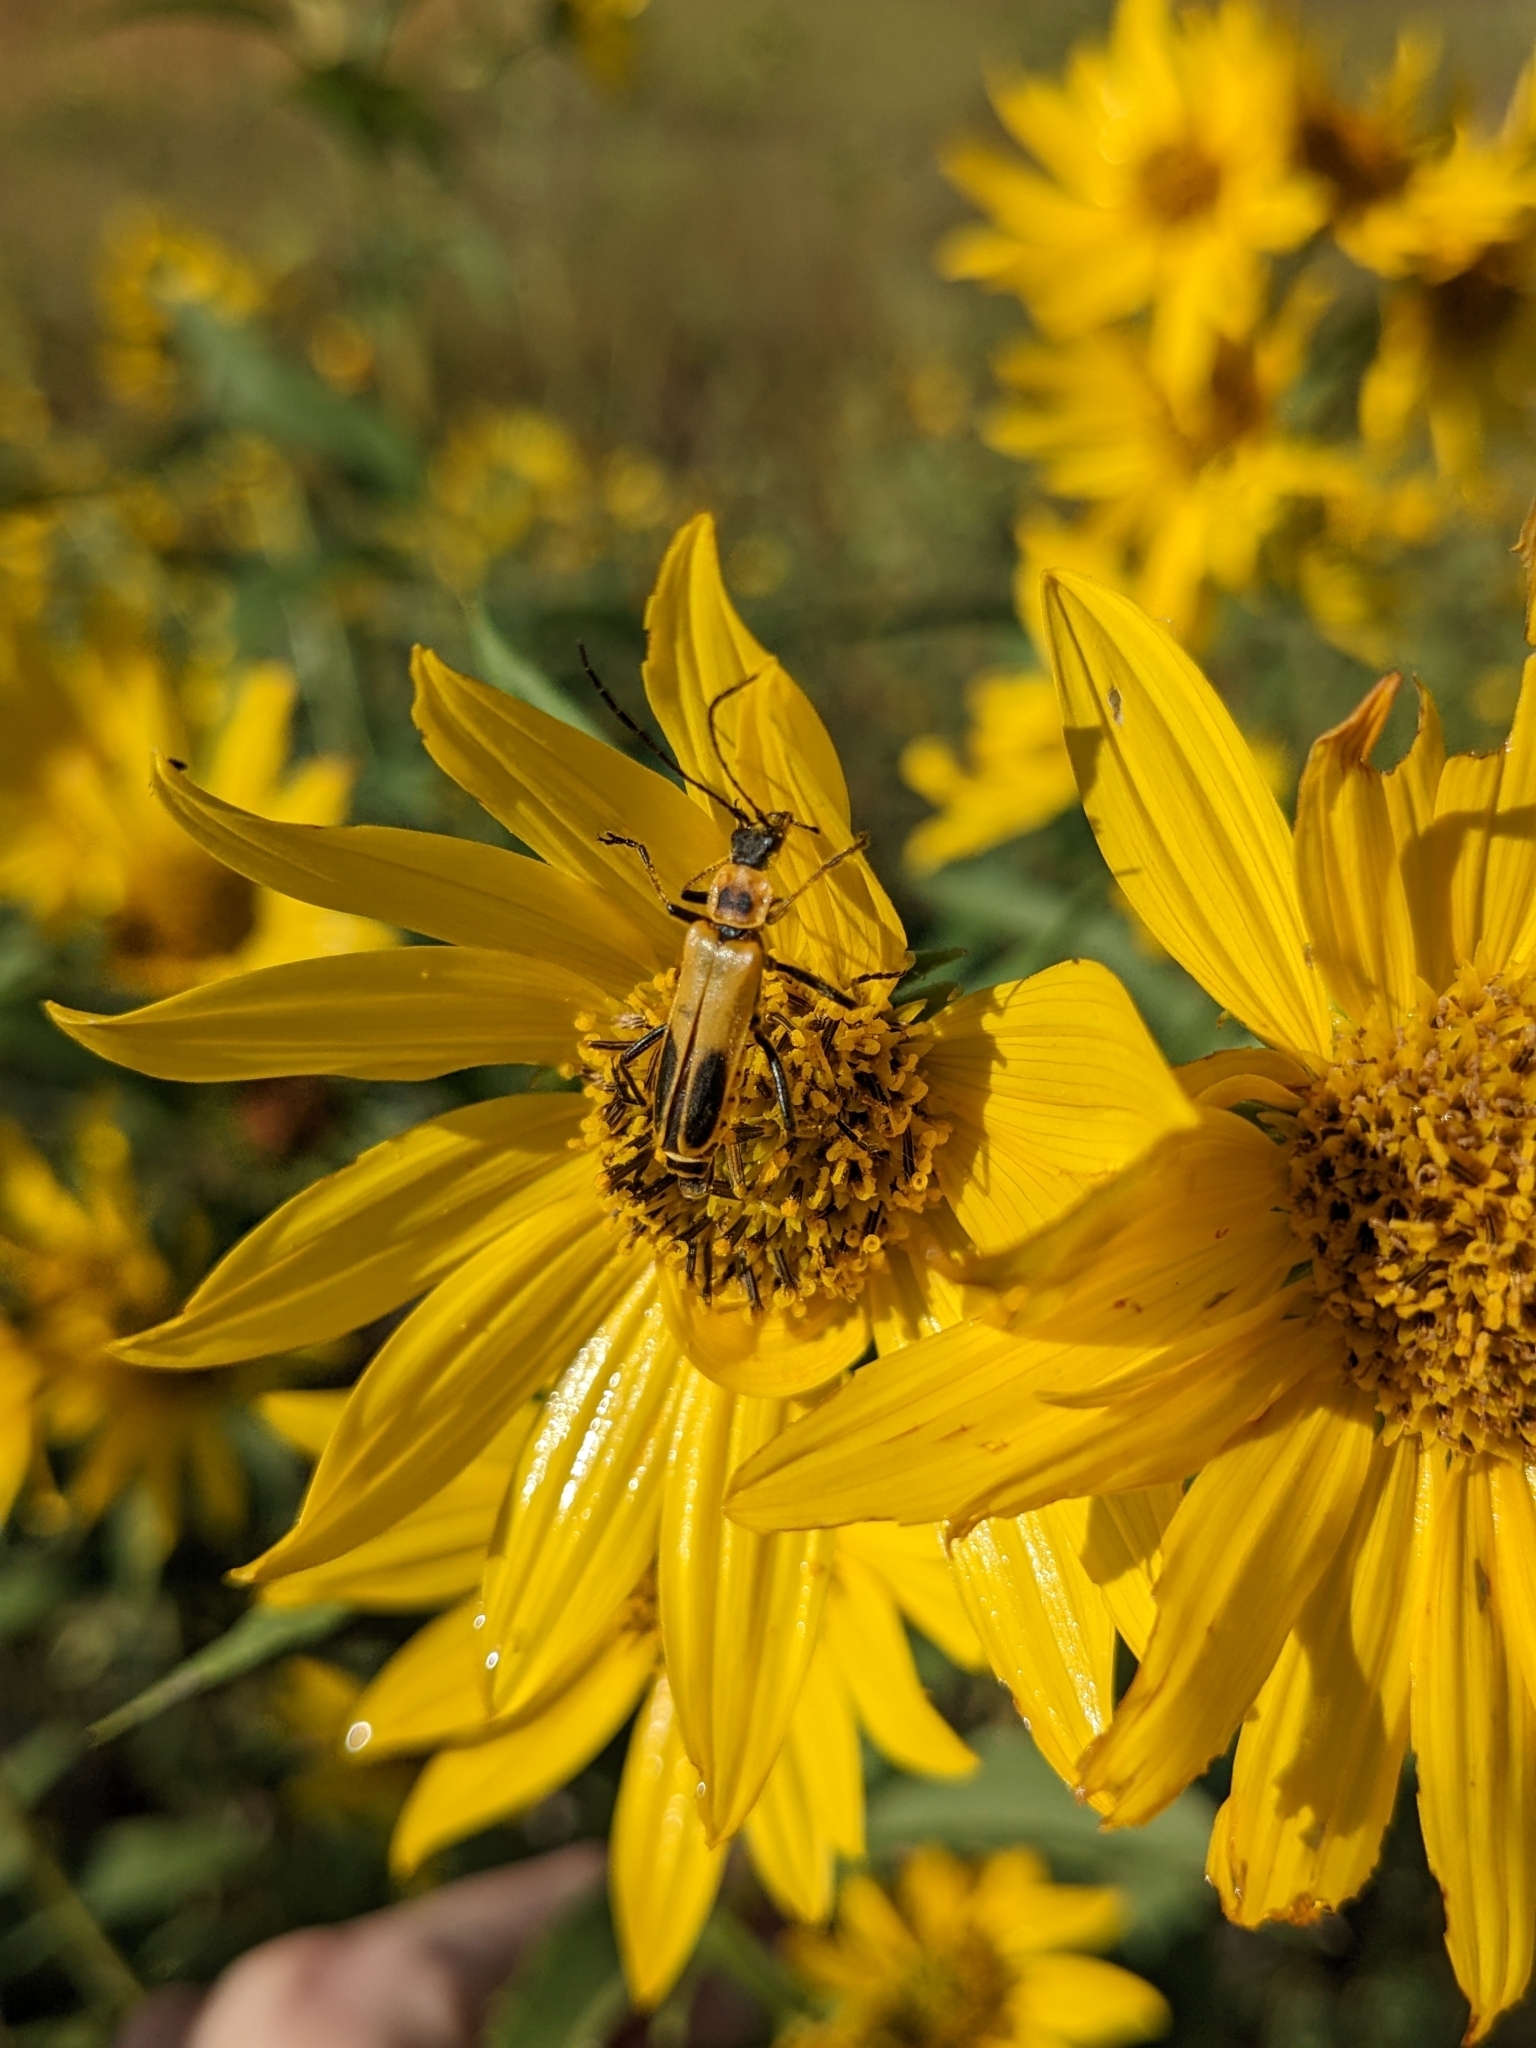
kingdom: Animalia
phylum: Arthropoda
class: Insecta
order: Coleoptera
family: Cantharidae
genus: Chauliognathus
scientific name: Chauliognathus pensylvanicus
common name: Goldenrod soldier beetle
